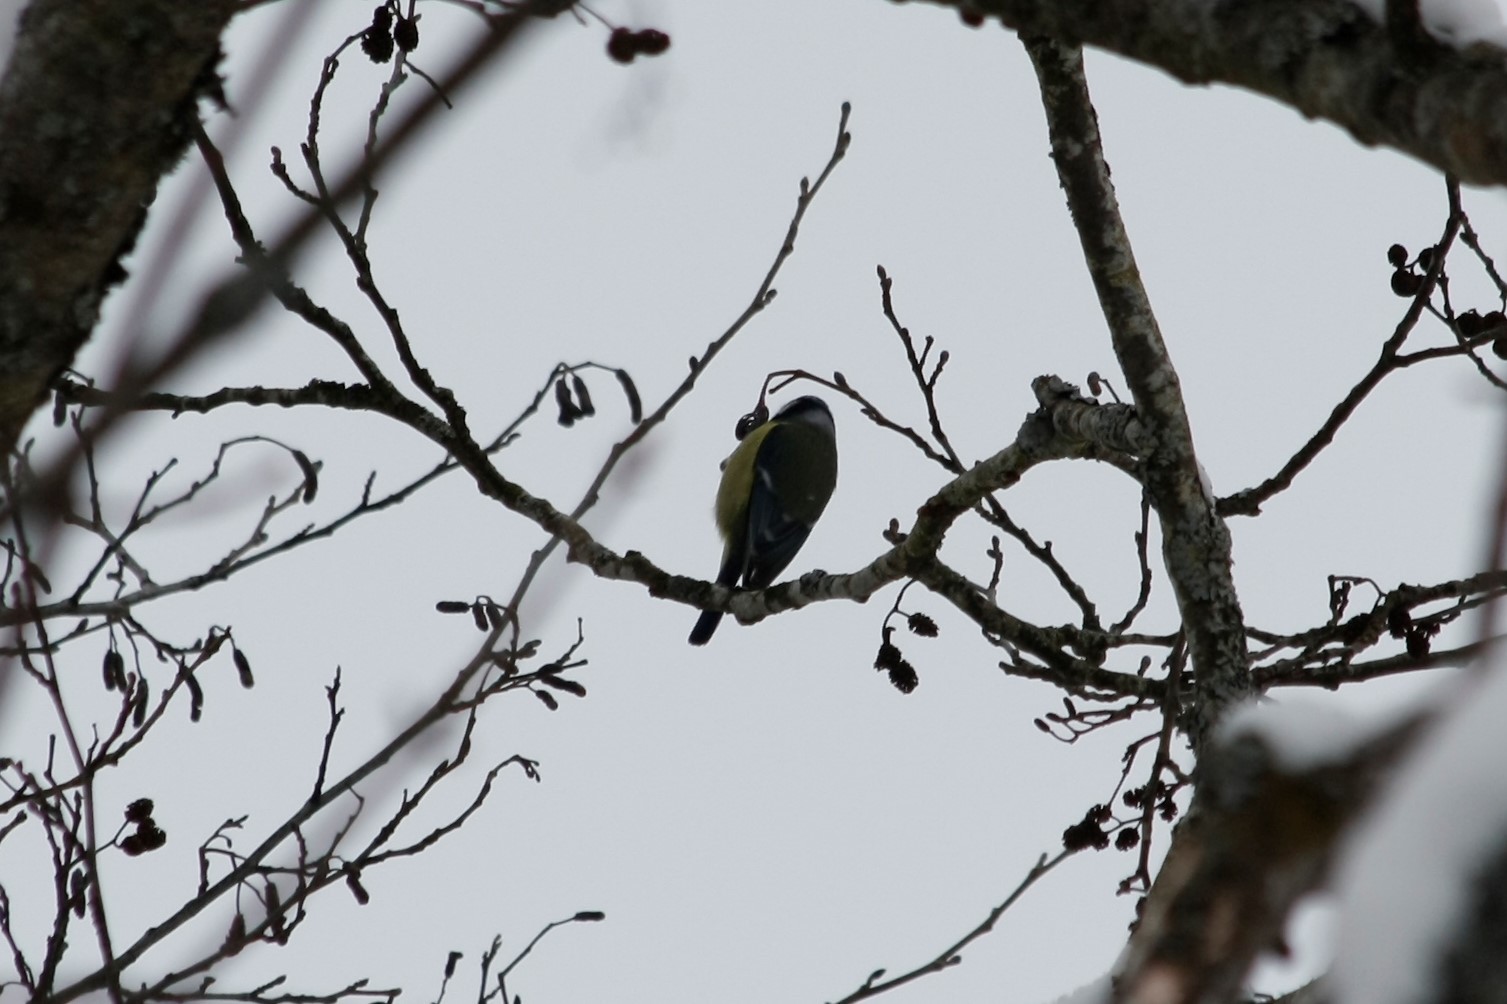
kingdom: Animalia
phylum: Chordata
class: Aves
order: Passeriformes
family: Paridae
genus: Cyanistes
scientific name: Cyanistes caeruleus
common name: Eurasian blue tit
